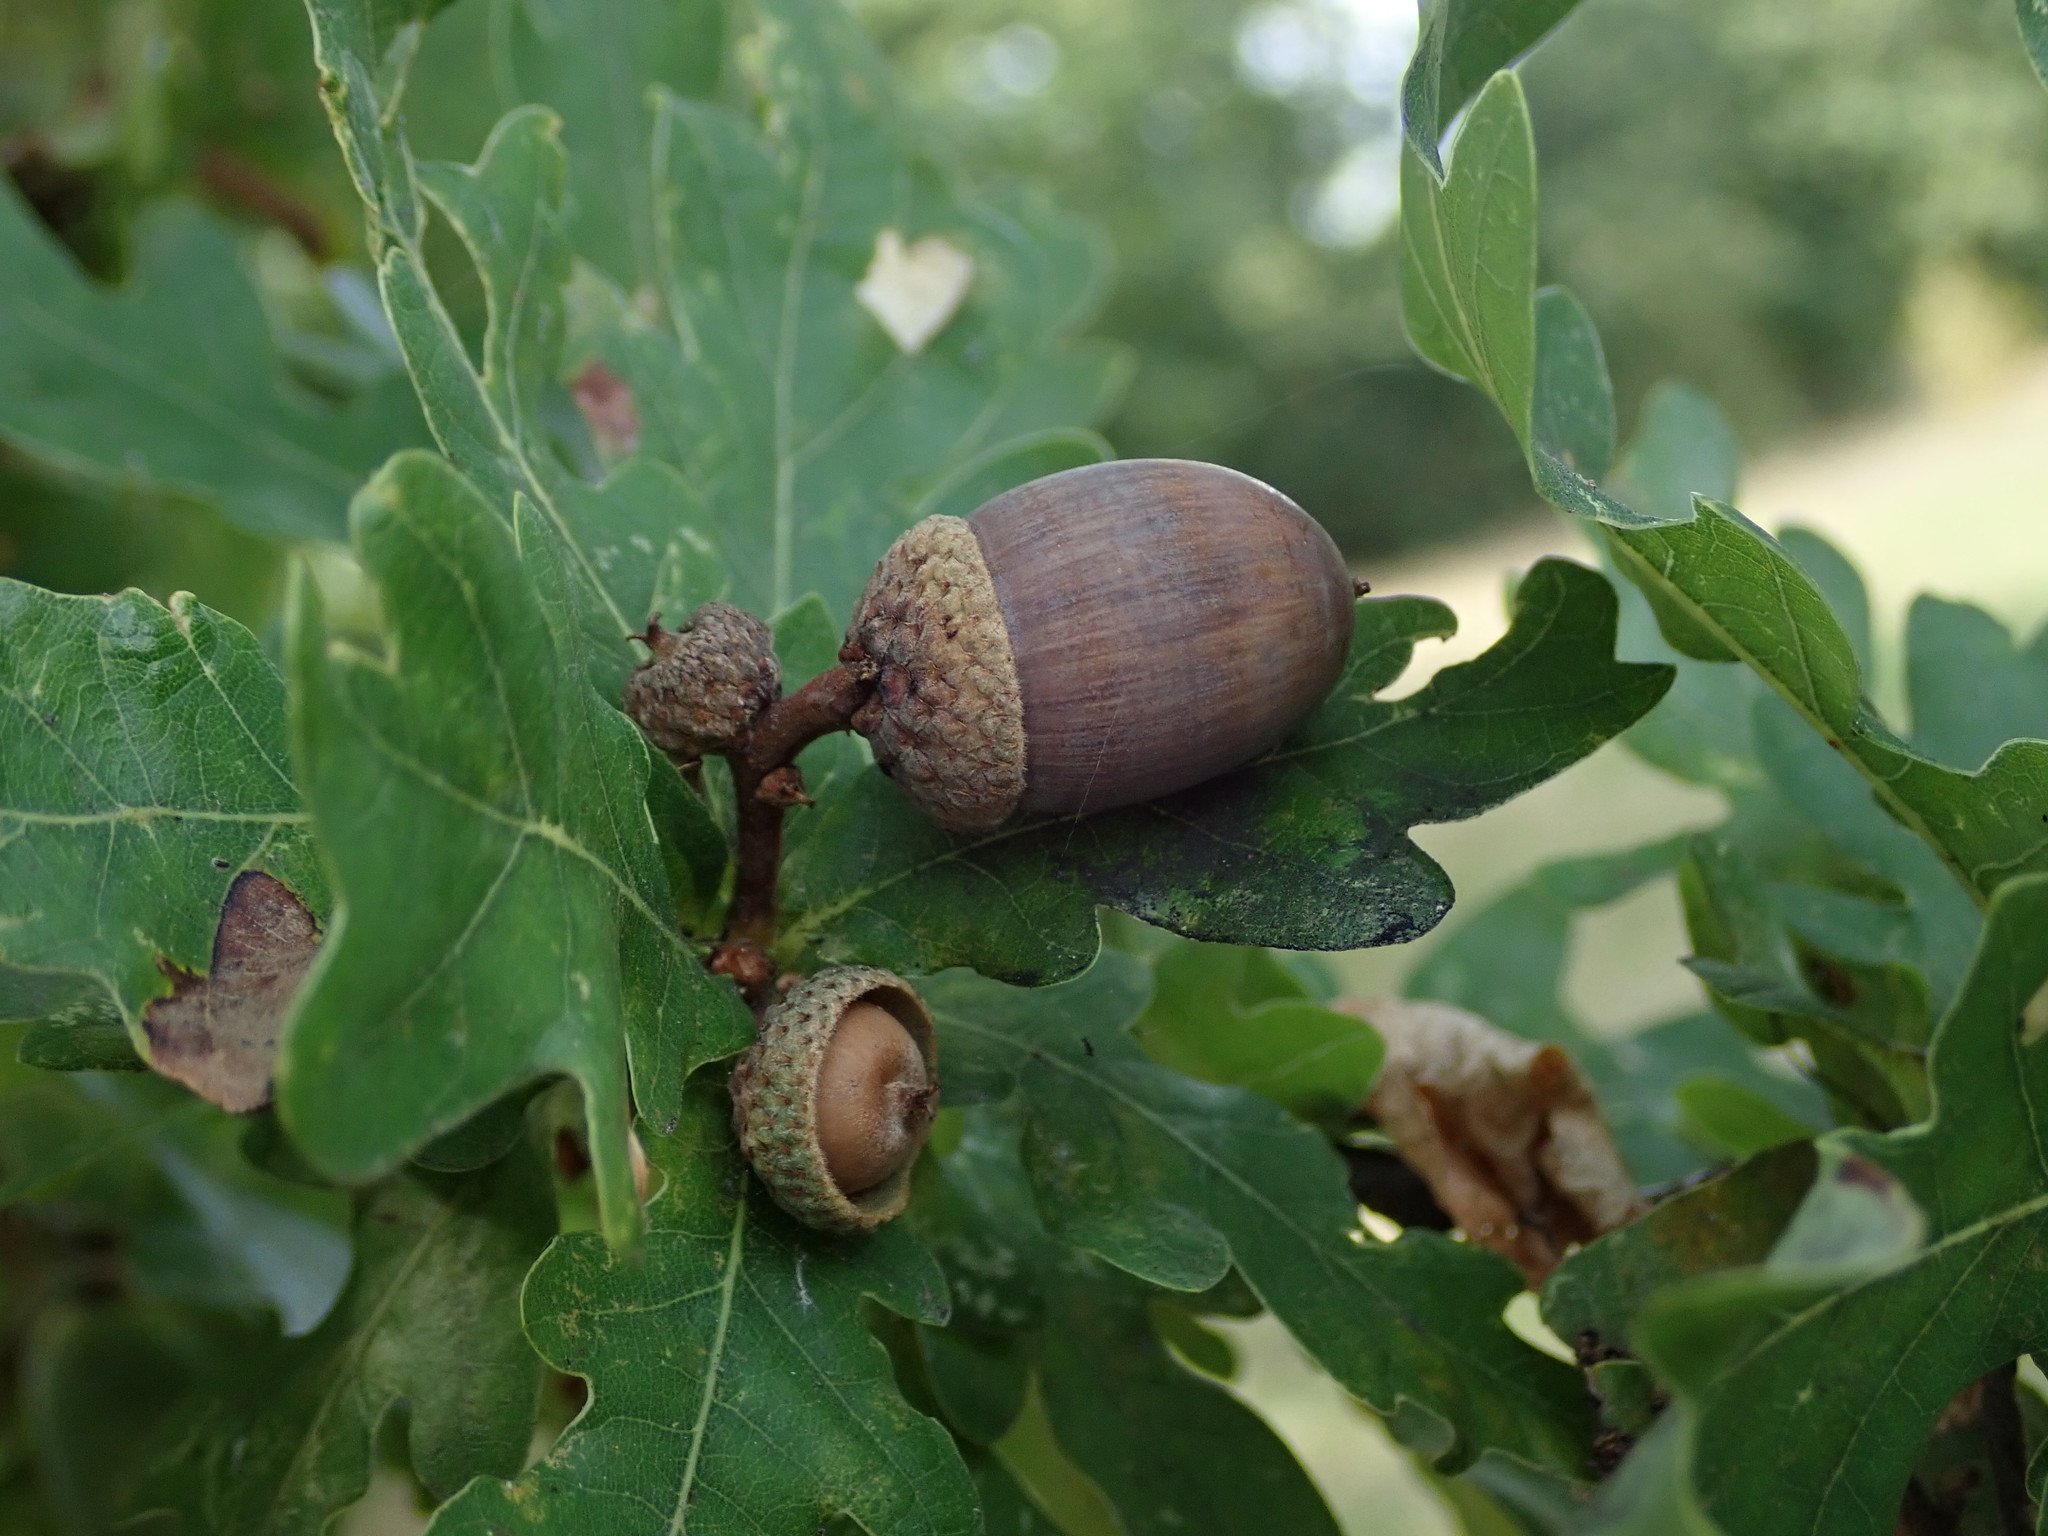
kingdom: Plantae
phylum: Tracheophyta
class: Magnoliopsida
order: Fagales
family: Fagaceae
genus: Quercus
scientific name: Quercus robur
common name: Pedunculate oak
